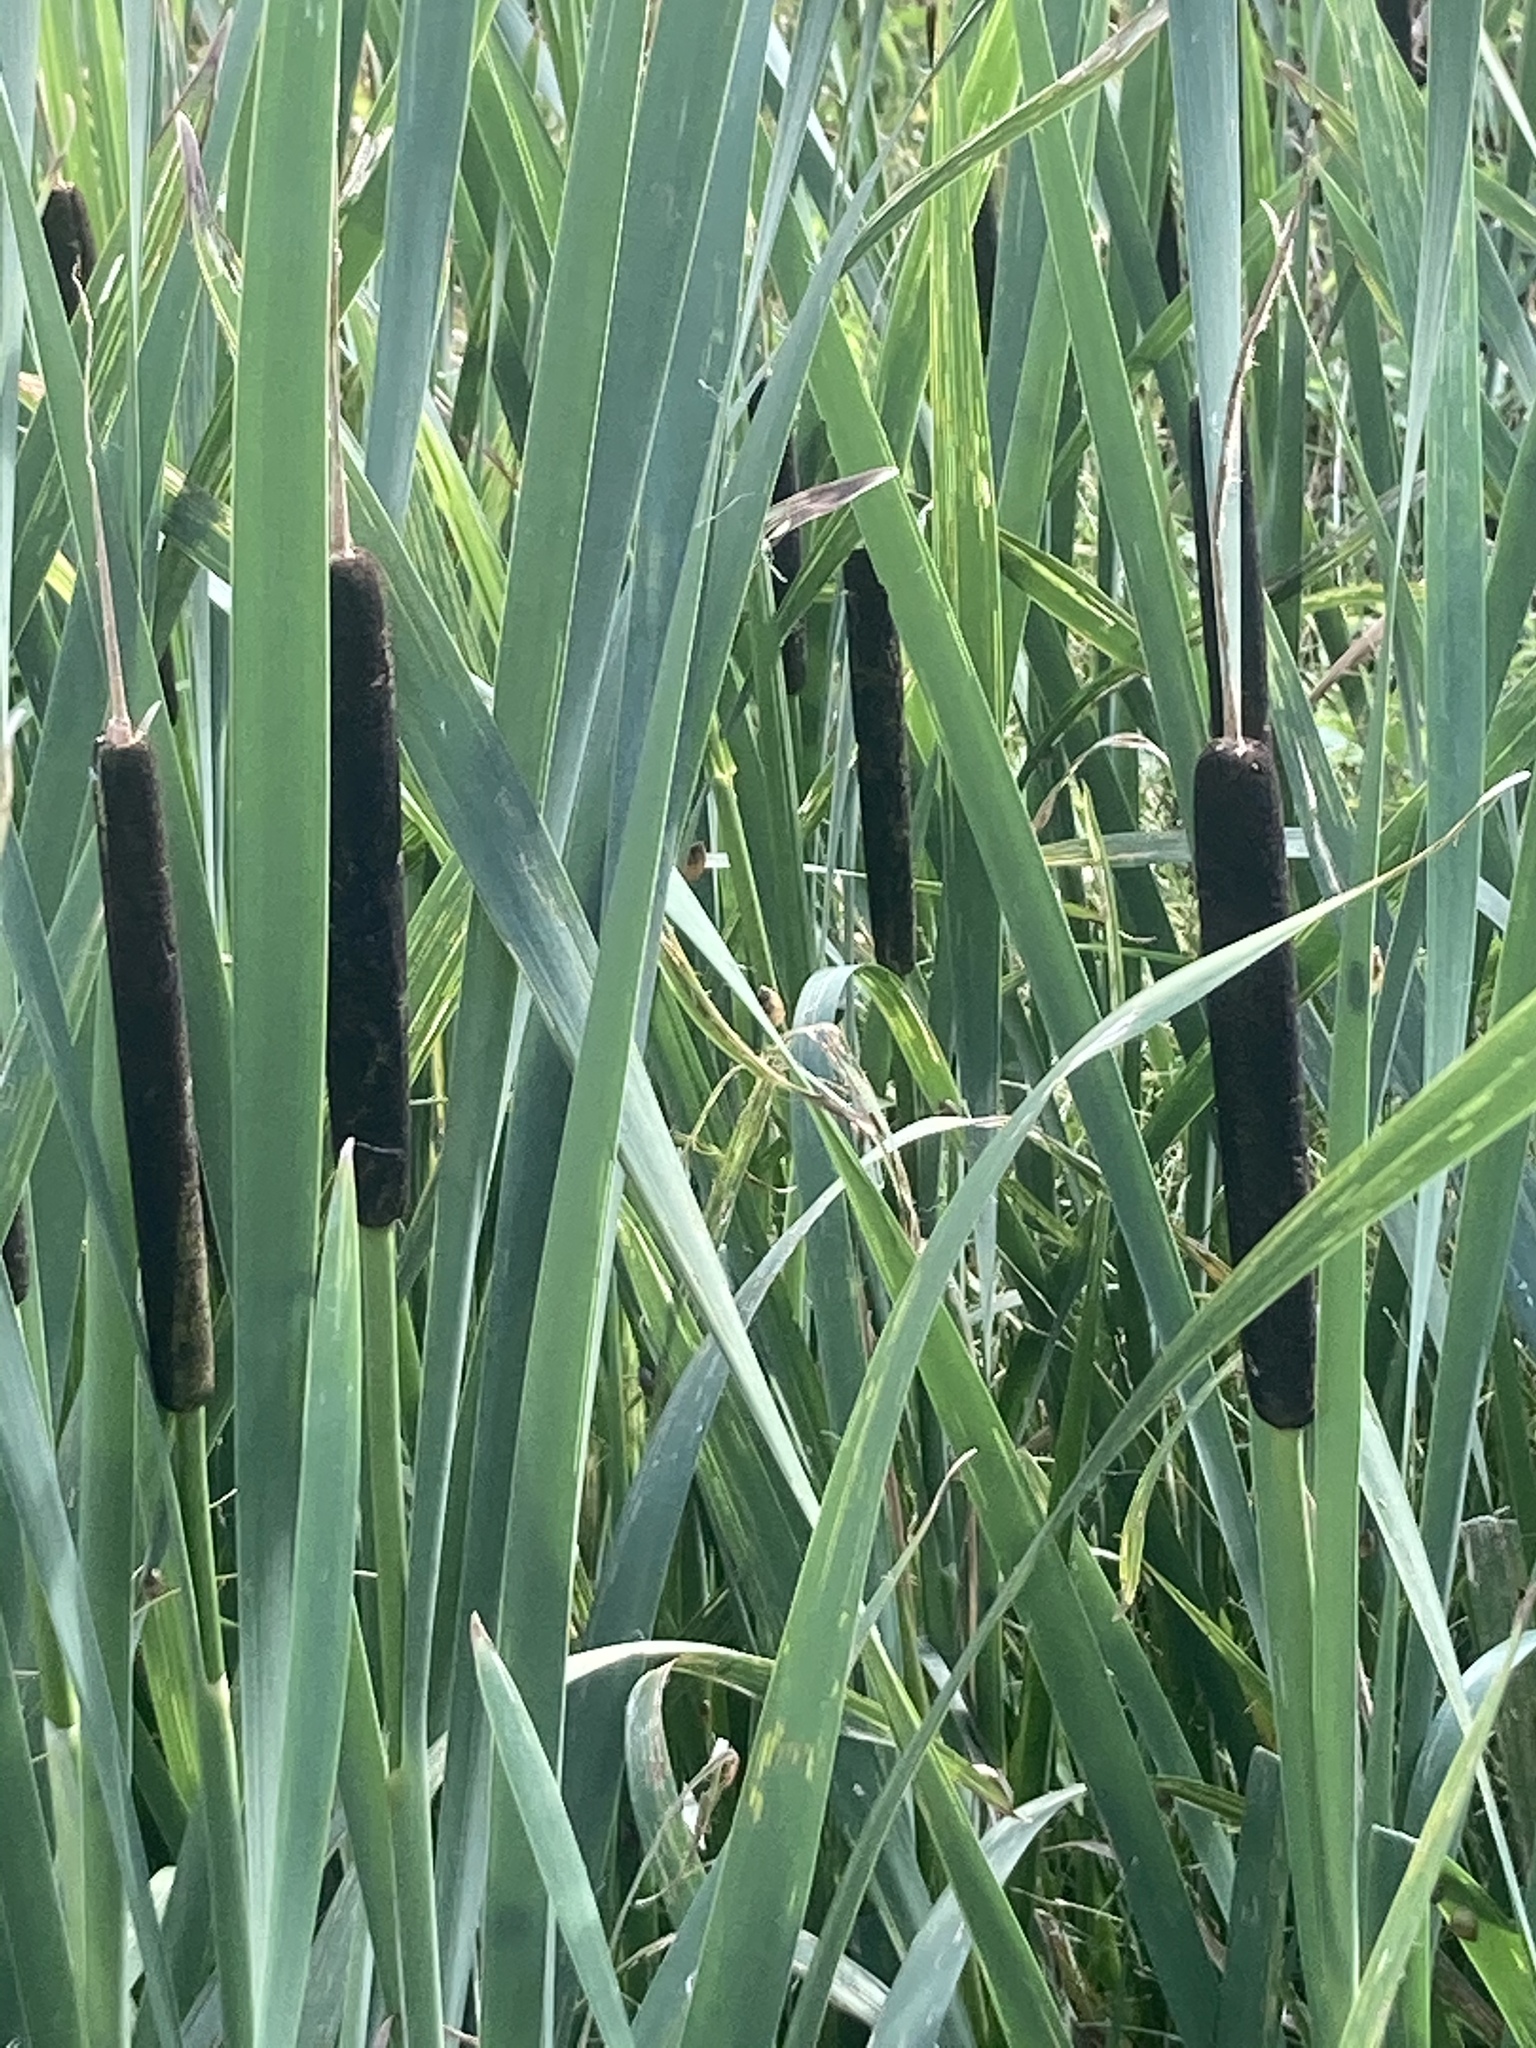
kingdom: Plantae
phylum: Tracheophyta
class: Liliopsida
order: Poales
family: Typhaceae
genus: Typha
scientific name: Typha latifolia
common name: Broadleaf cattail
